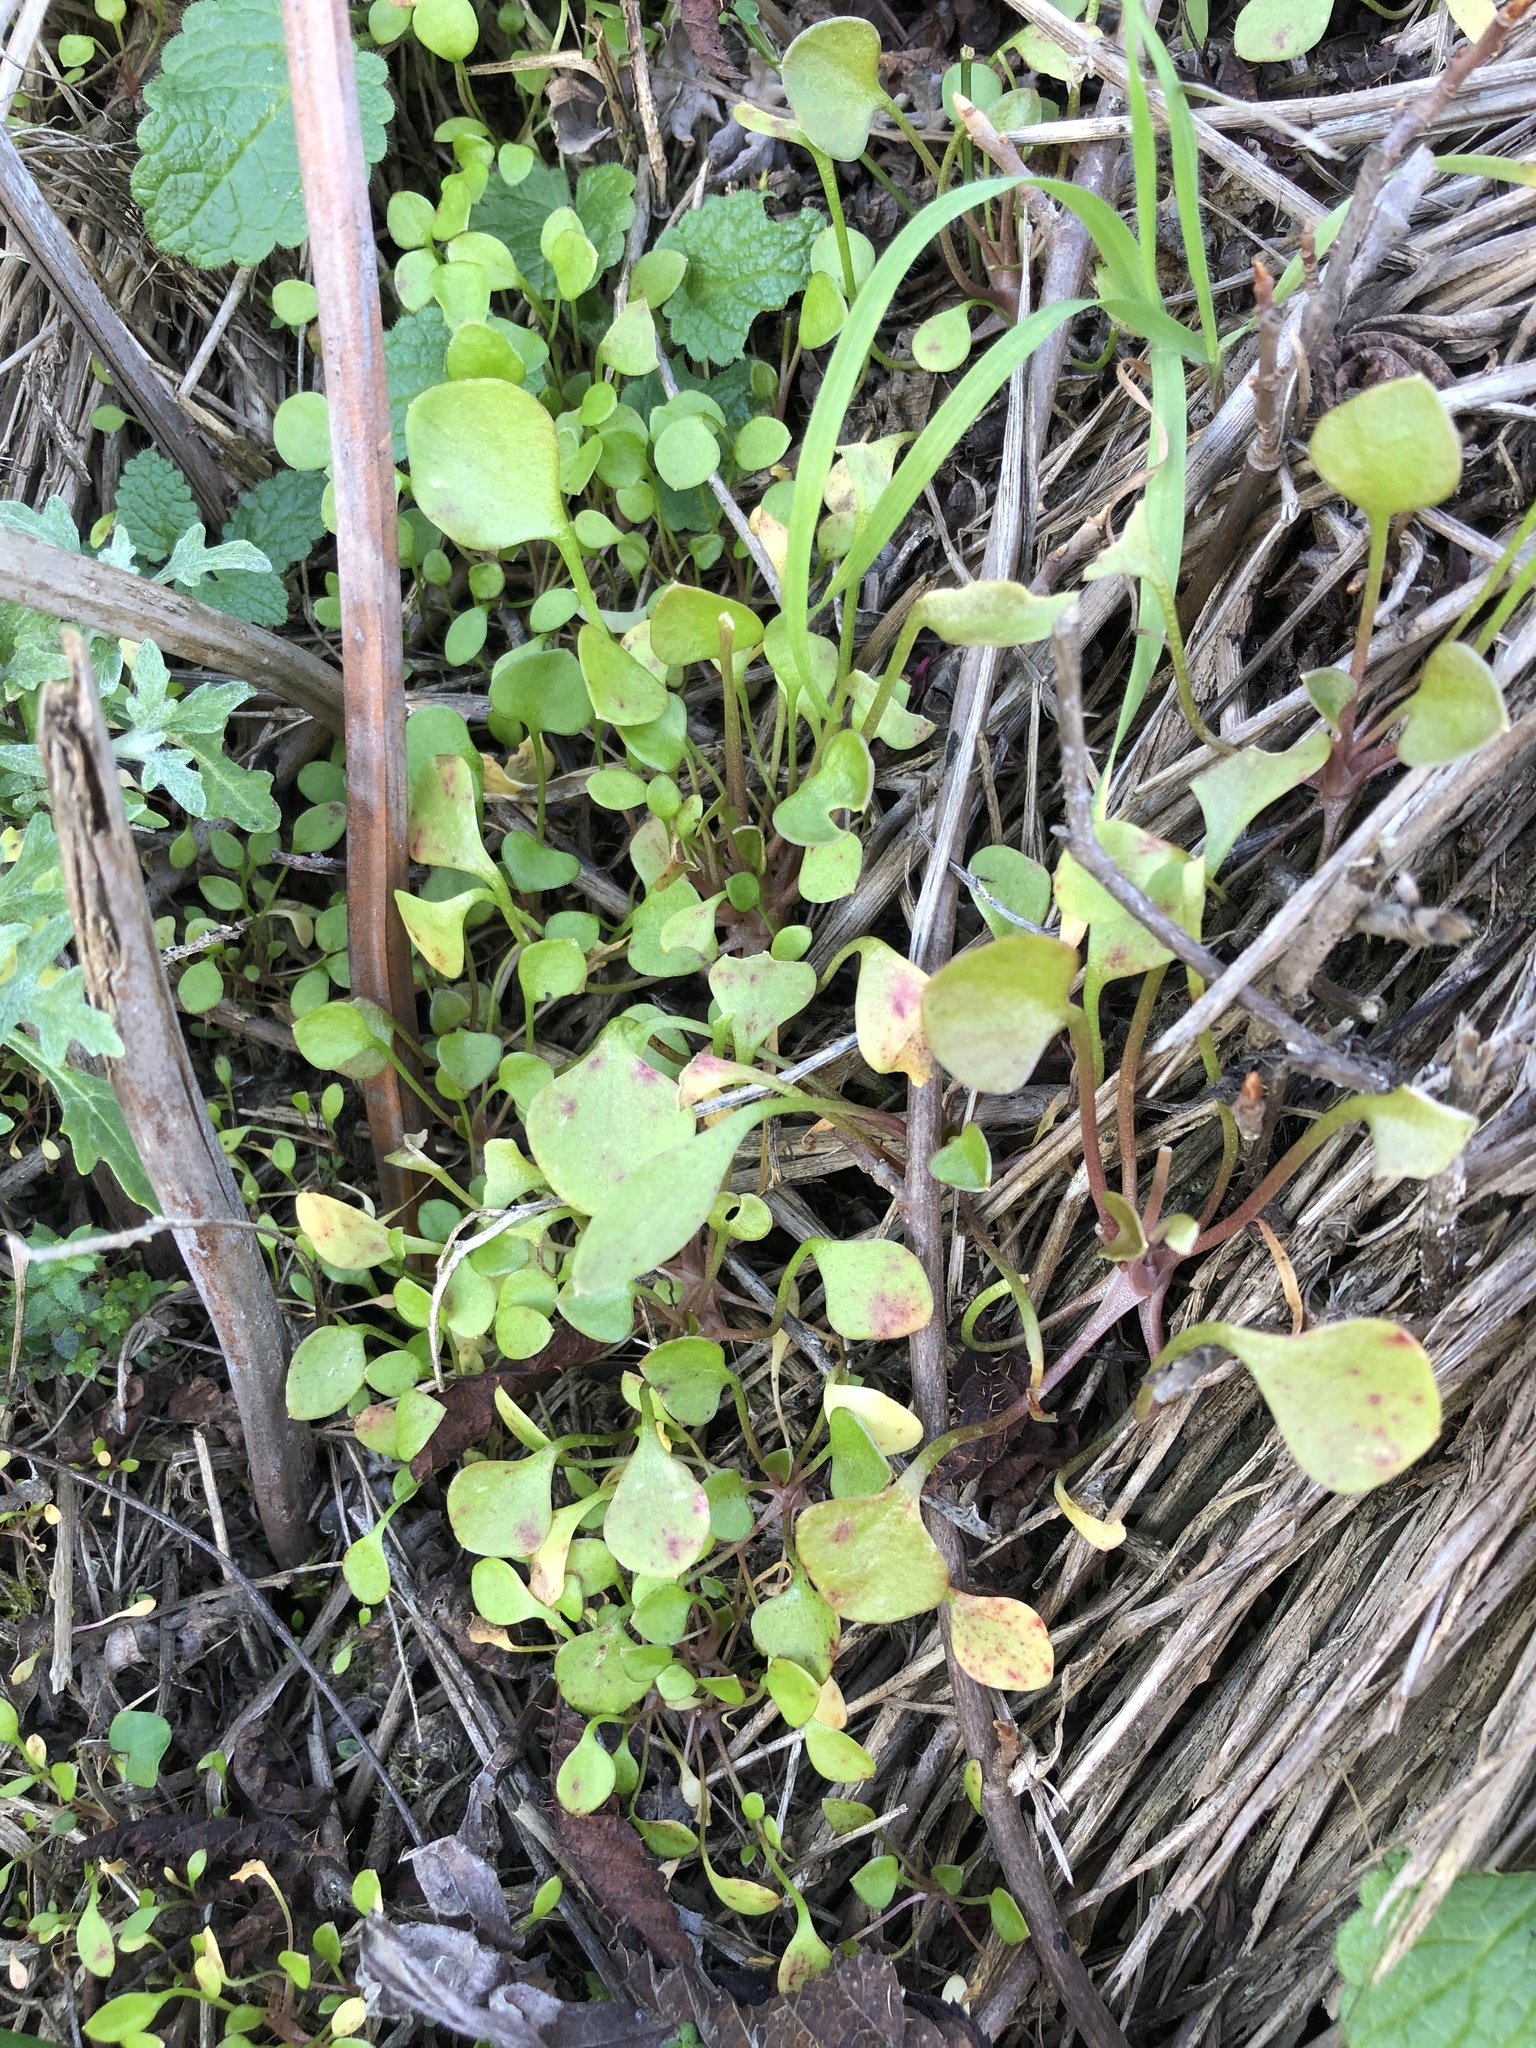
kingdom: Plantae
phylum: Tracheophyta
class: Magnoliopsida
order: Caryophyllales
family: Montiaceae
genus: Claytonia
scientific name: Claytonia perfoliata
